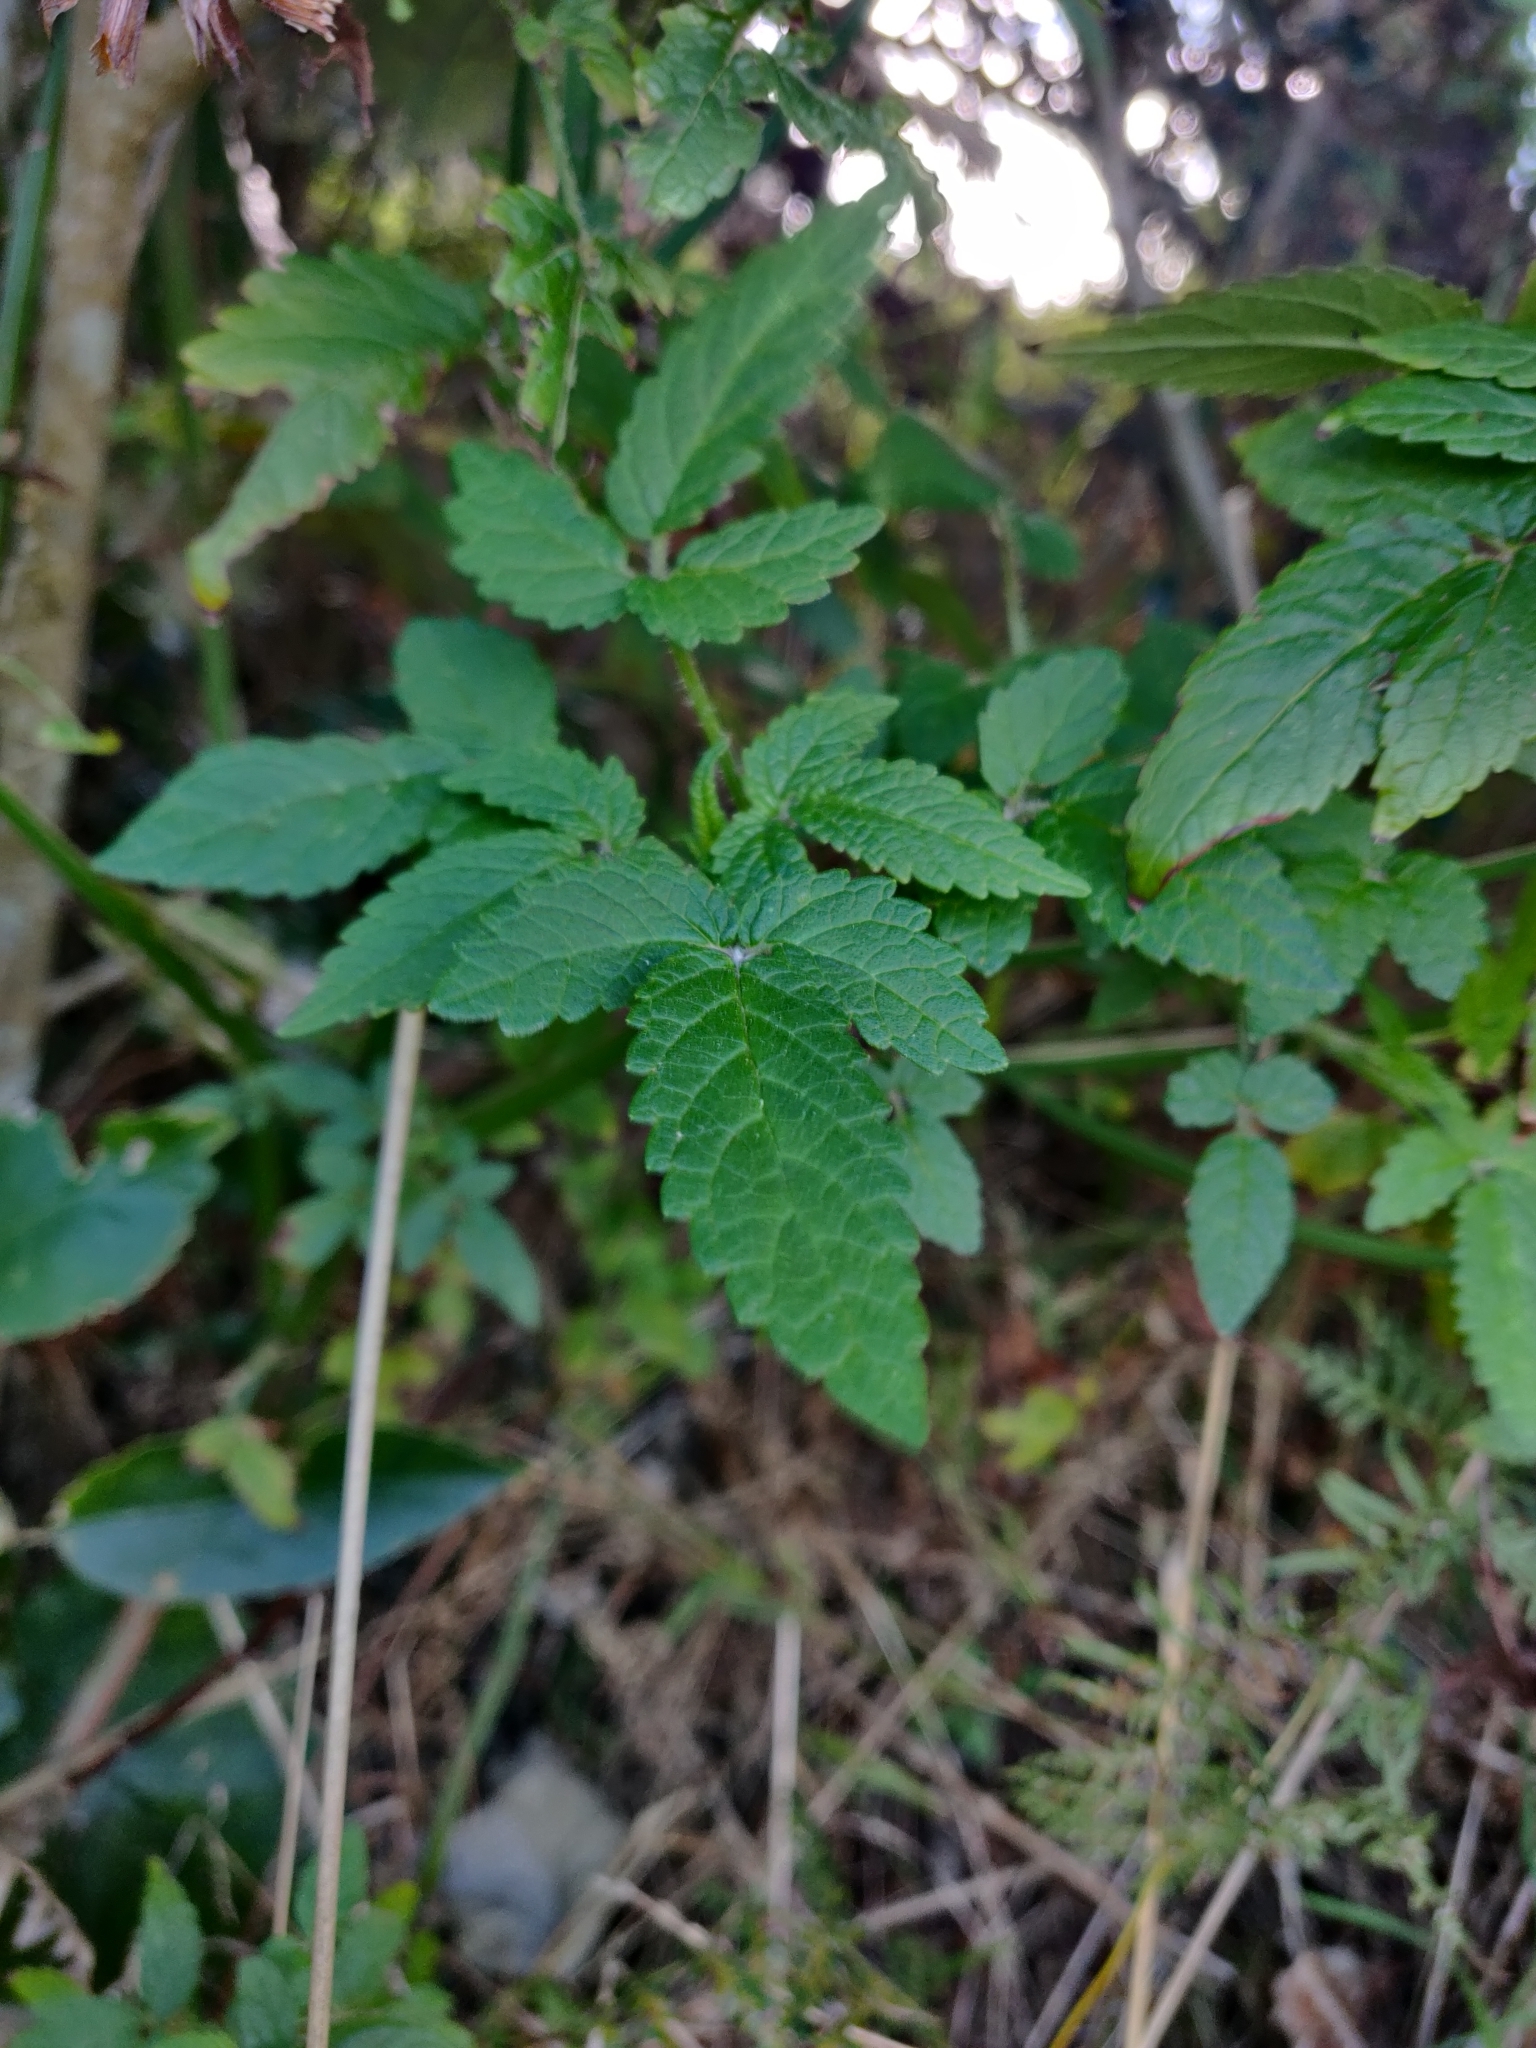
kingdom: Plantae
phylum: Tracheophyta
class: Magnoliopsida
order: Lamiales
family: Lamiaceae
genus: Cedronella
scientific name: Cedronella canariensis
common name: Canary islands balm
